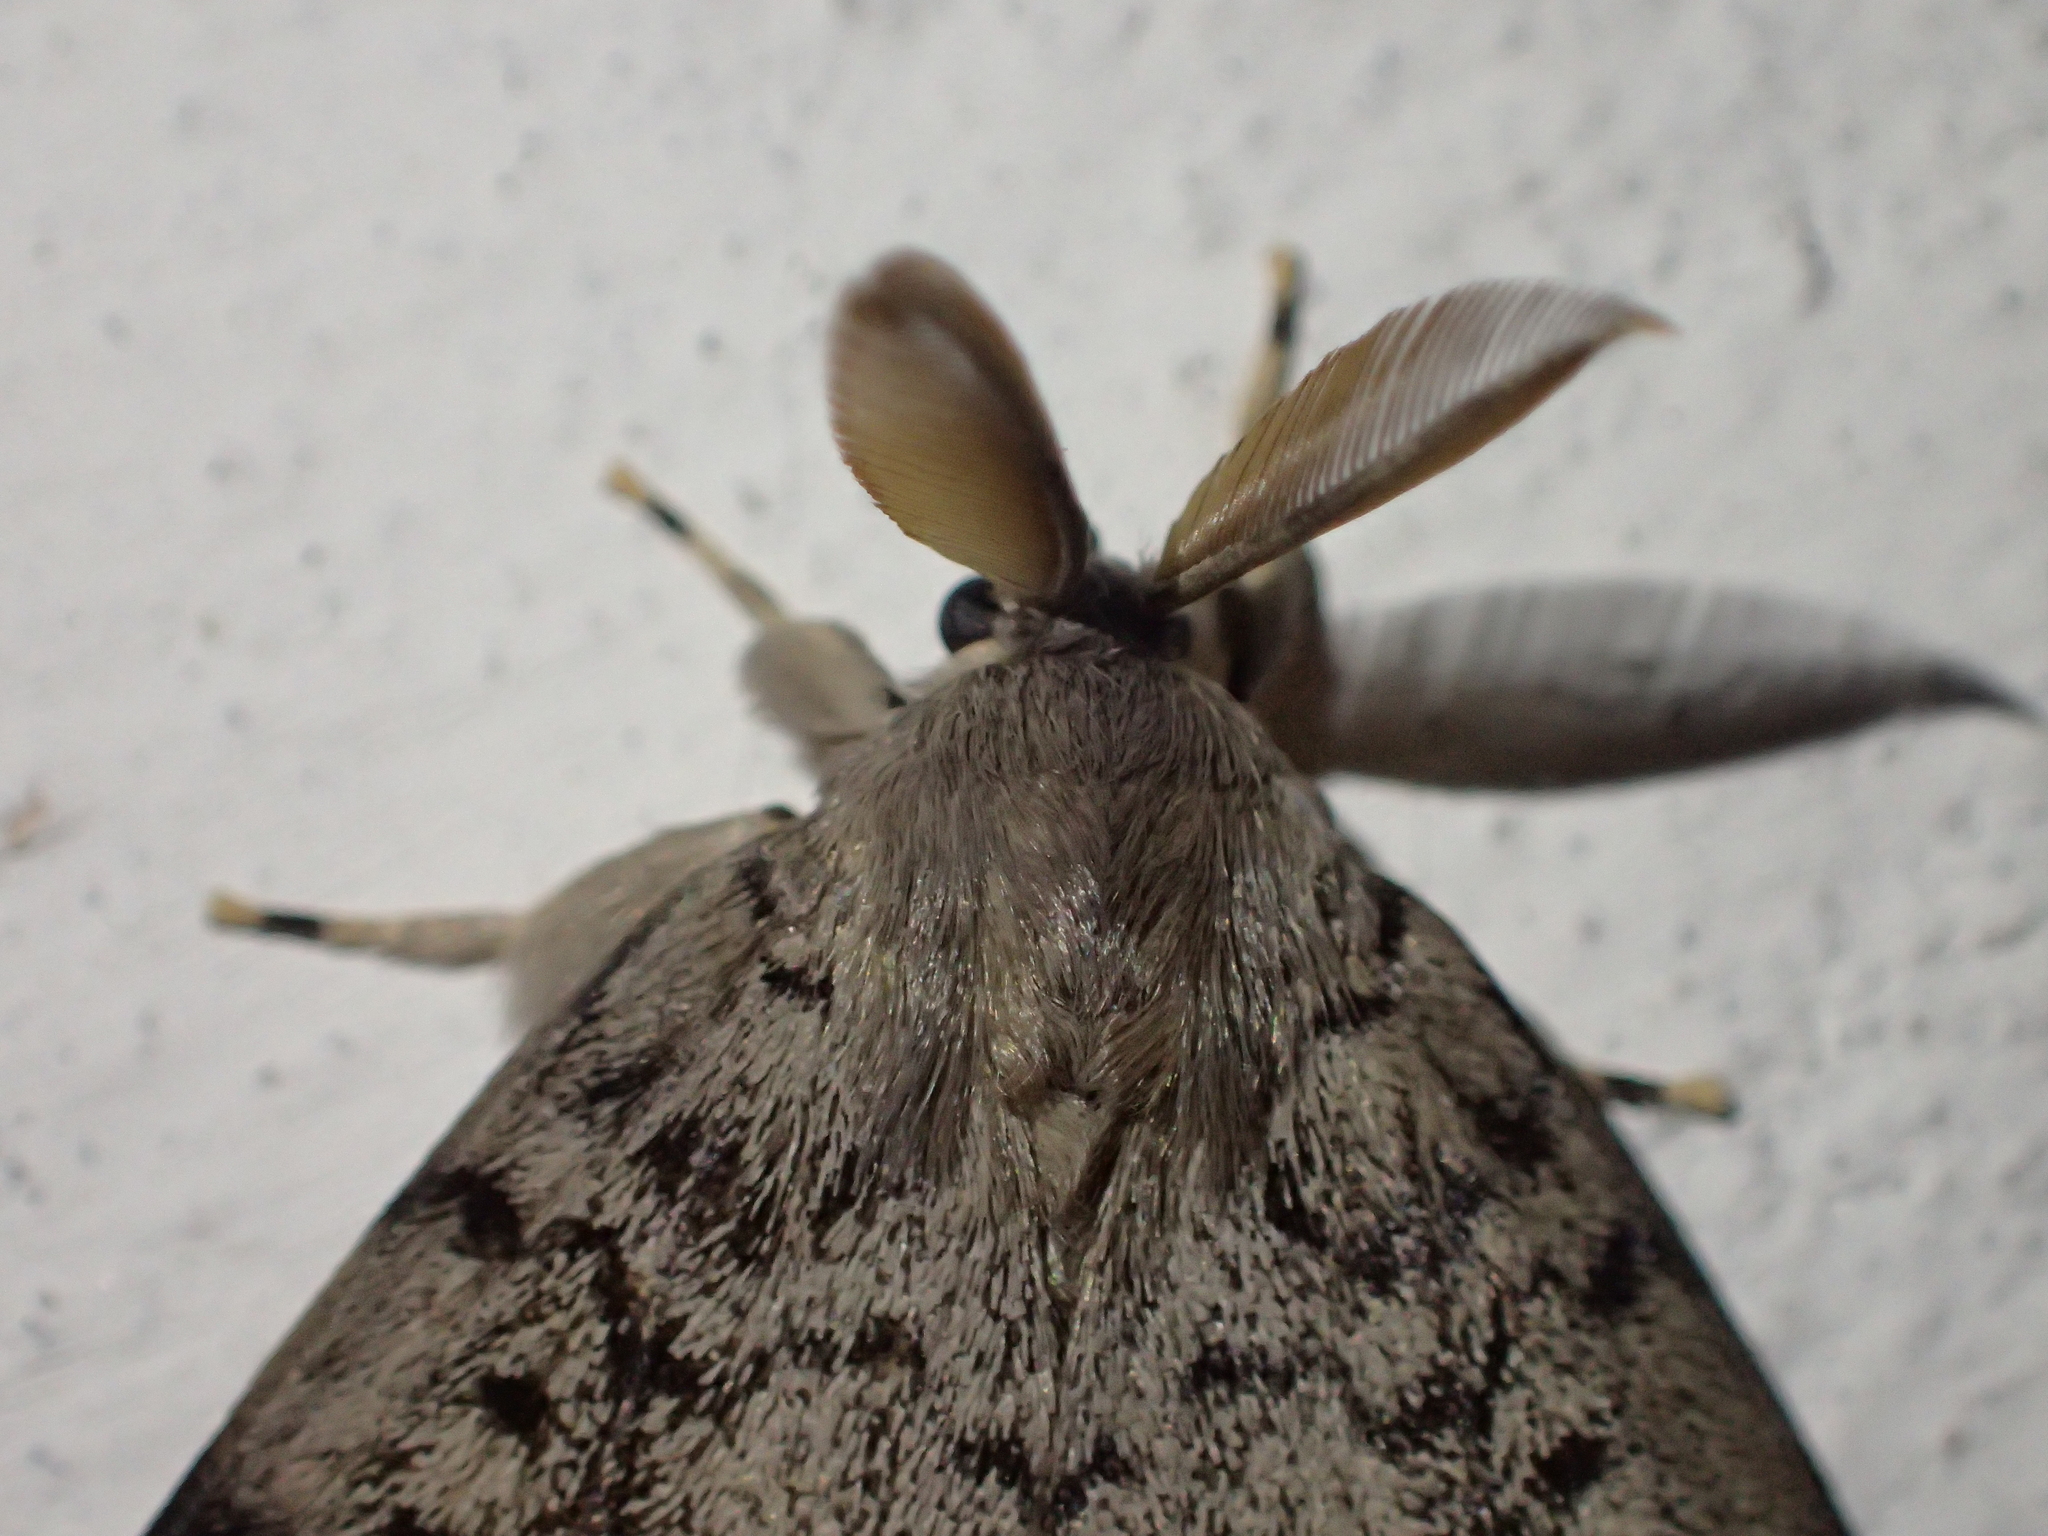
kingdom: Animalia
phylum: Arthropoda
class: Insecta
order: Lepidoptera
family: Erebidae
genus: Lymantria
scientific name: Lymantria dispar
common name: Gypsy moth
